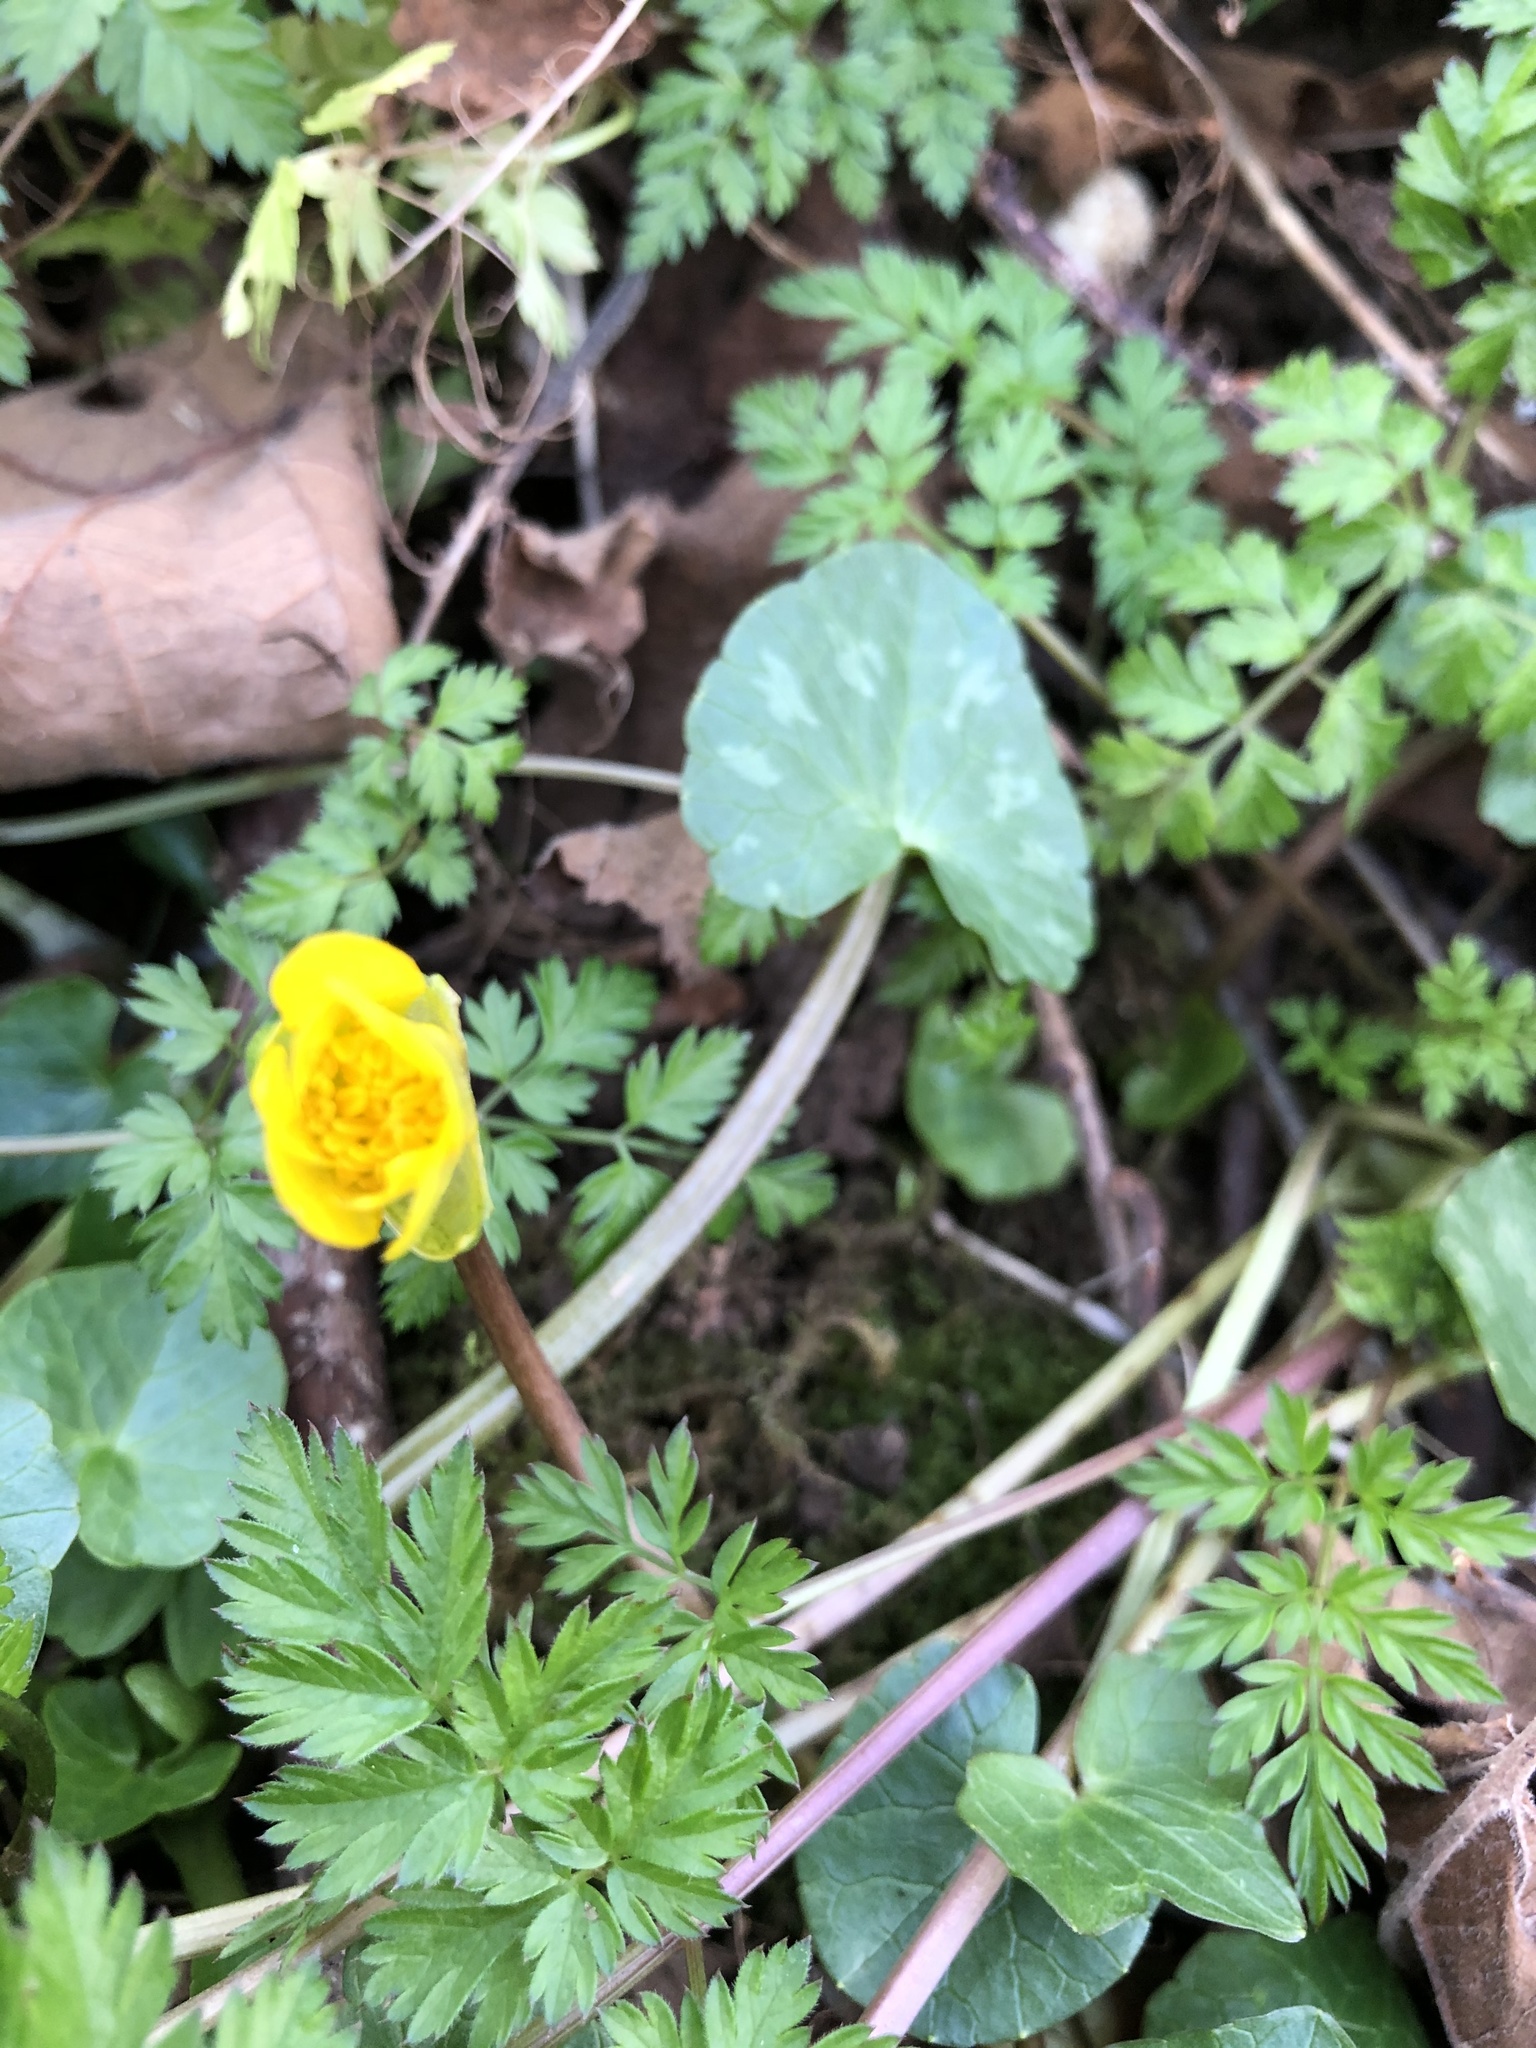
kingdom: Plantae
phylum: Tracheophyta
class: Magnoliopsida
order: Ranunculales
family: Ranunculaceae
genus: Ficaria
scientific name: Ficaria verna
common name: Lesser celandine
